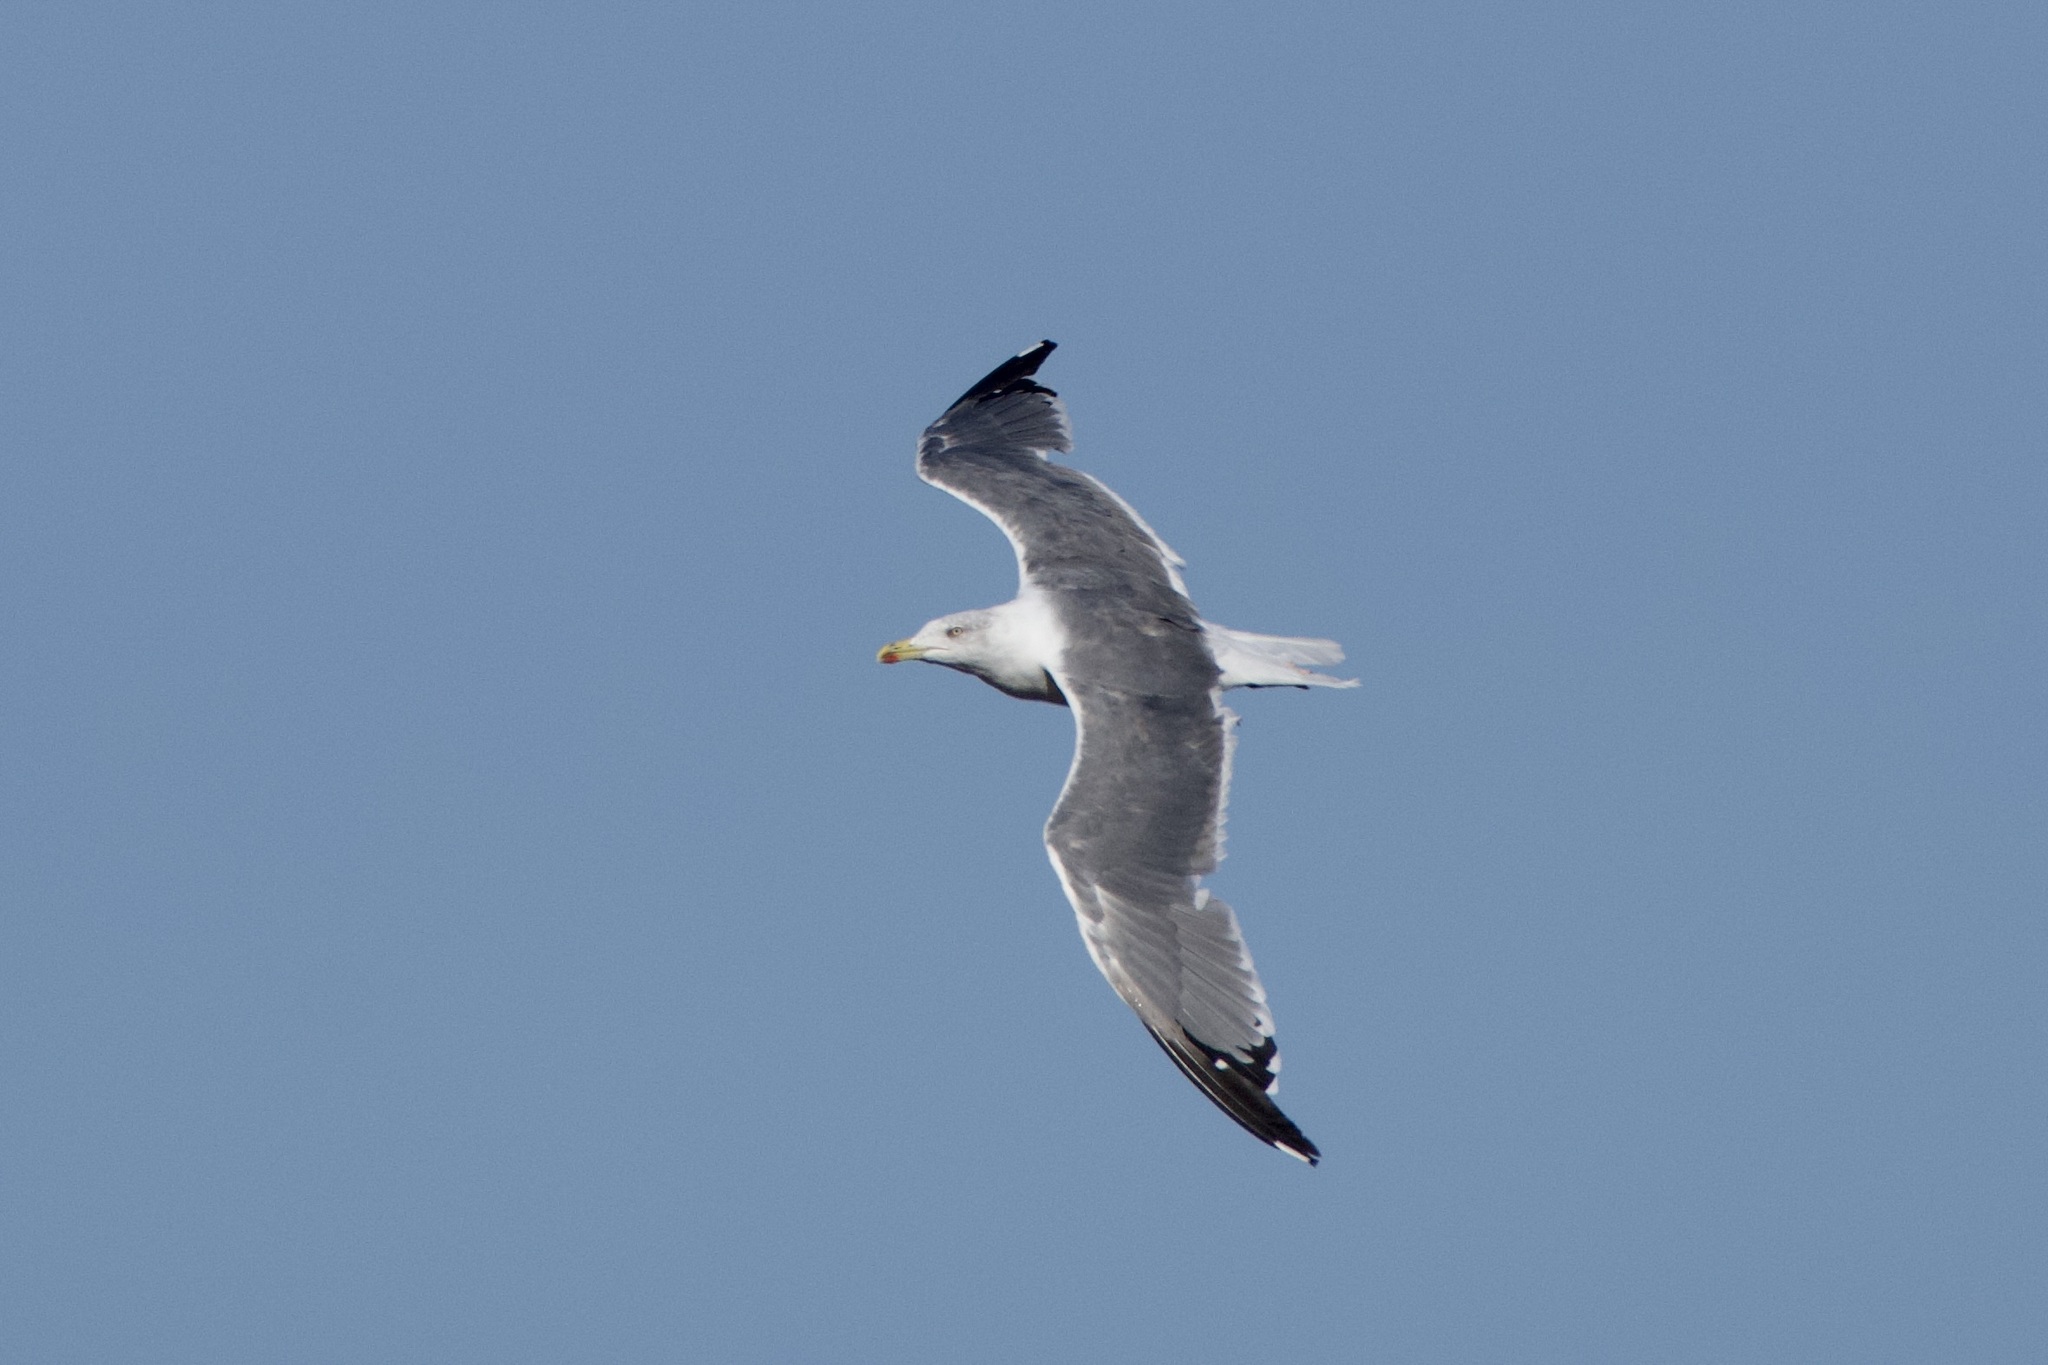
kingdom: Animalia
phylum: Chordata
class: Aves
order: Charadriiformes
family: Laridae
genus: Larus
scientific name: Larus michahellis
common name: Yellow-legged gull
